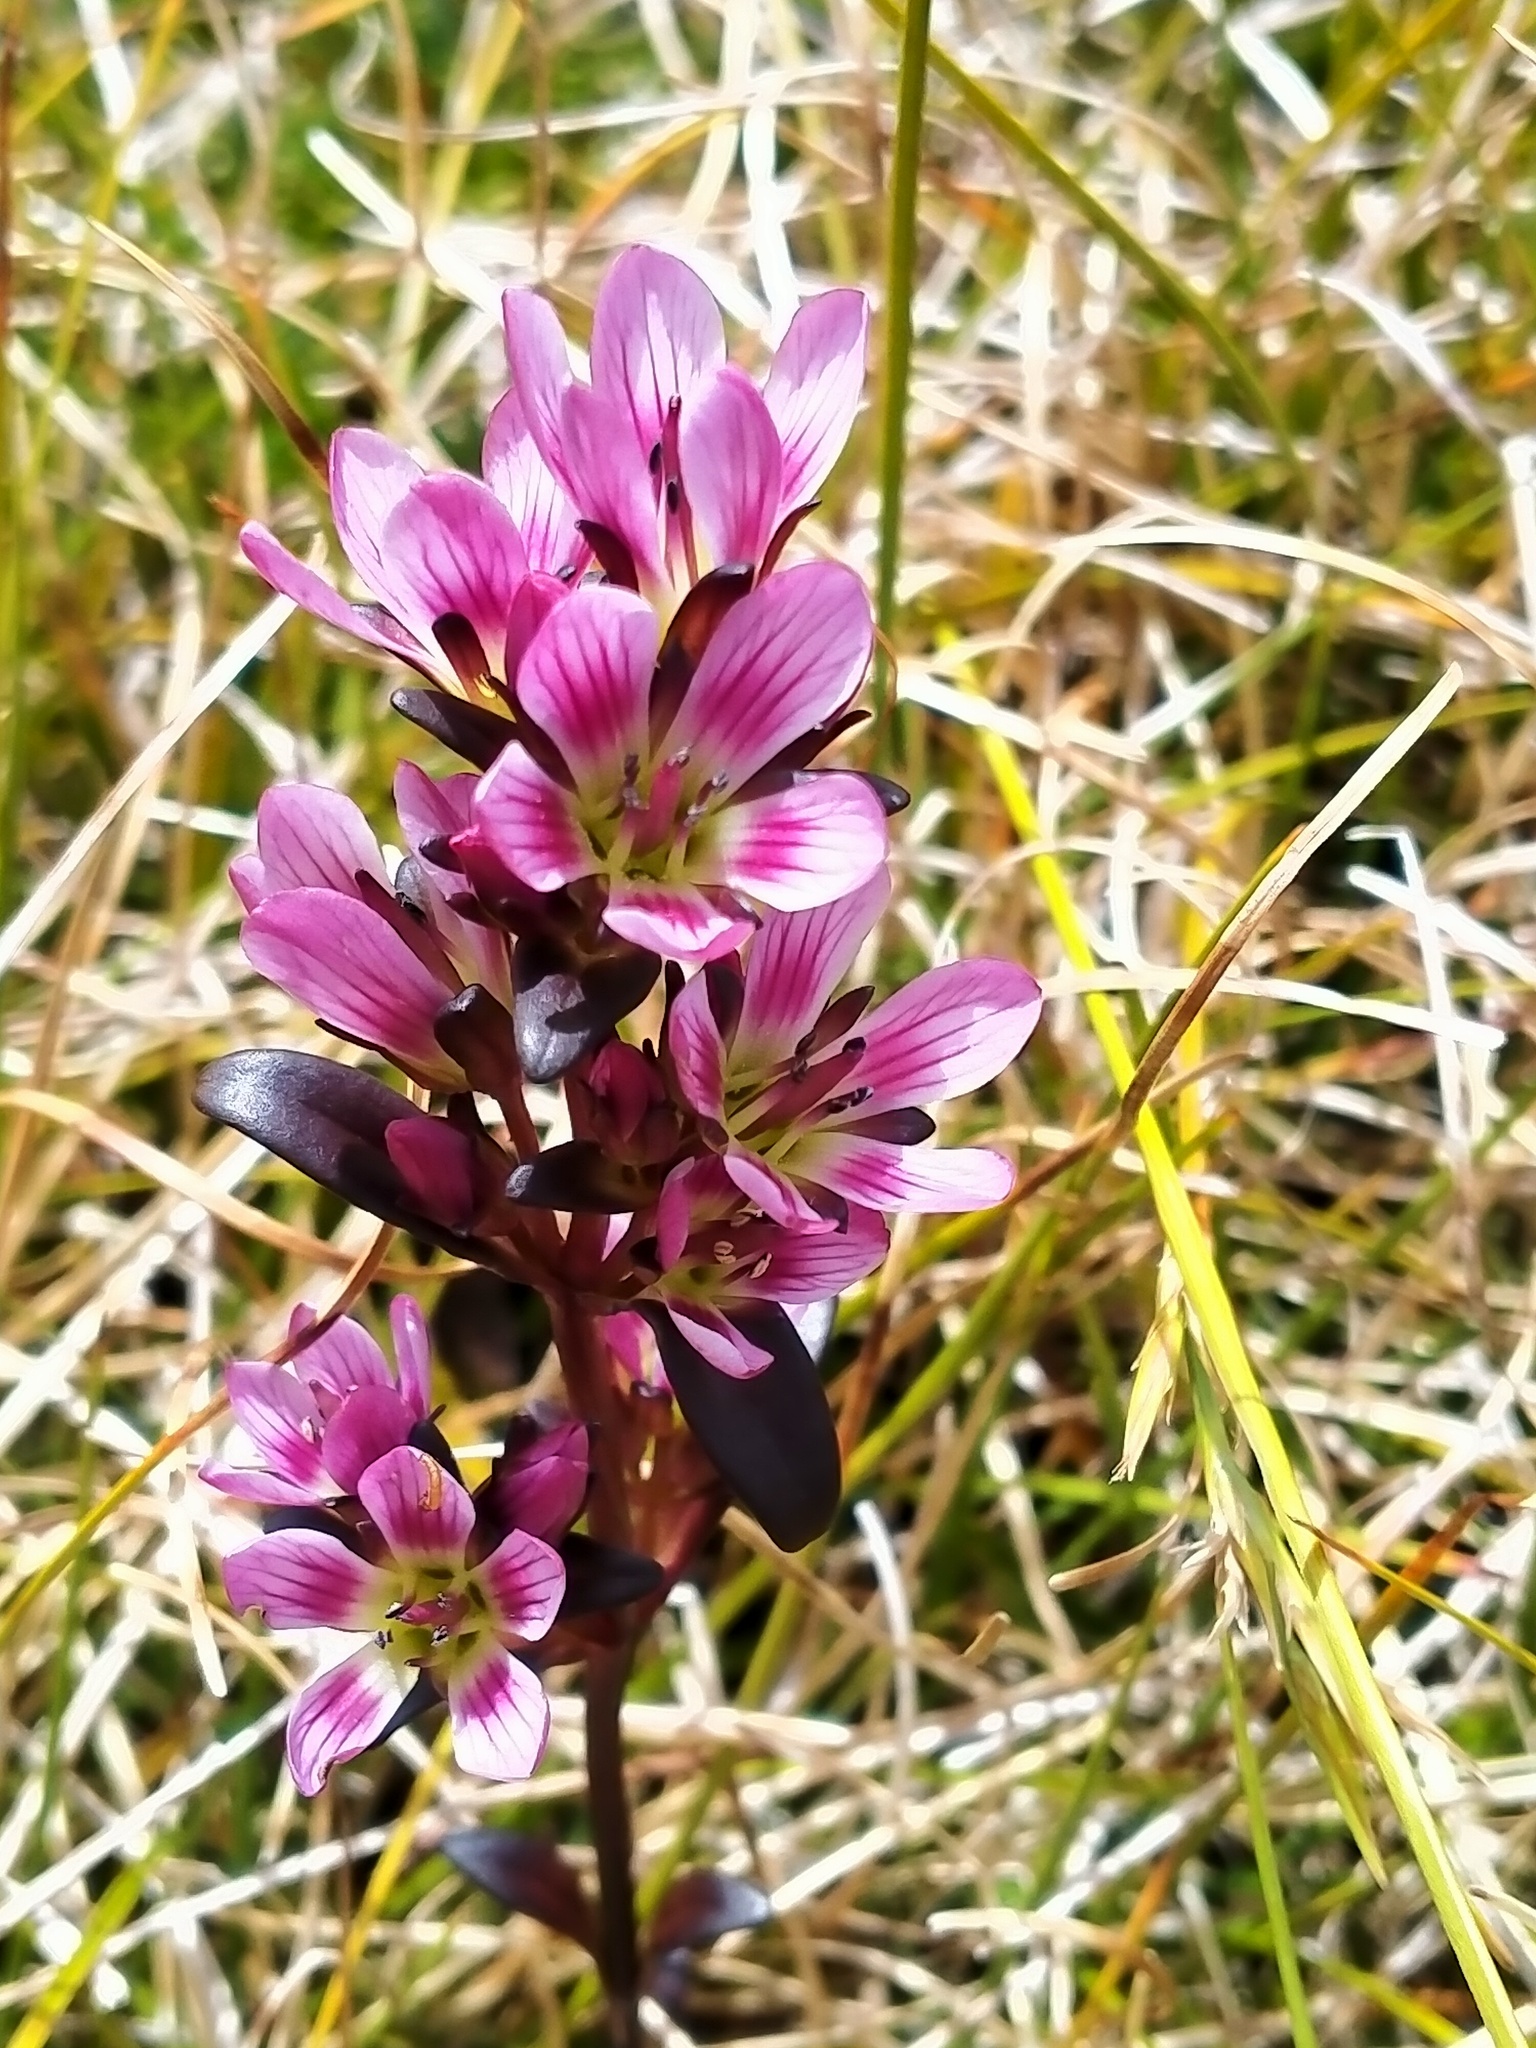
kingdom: Plantae
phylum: Tracheophyta
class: Magnoliopsida
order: Gentianales
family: Gentianaceae
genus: Gentianella
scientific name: Gentianella concinna
